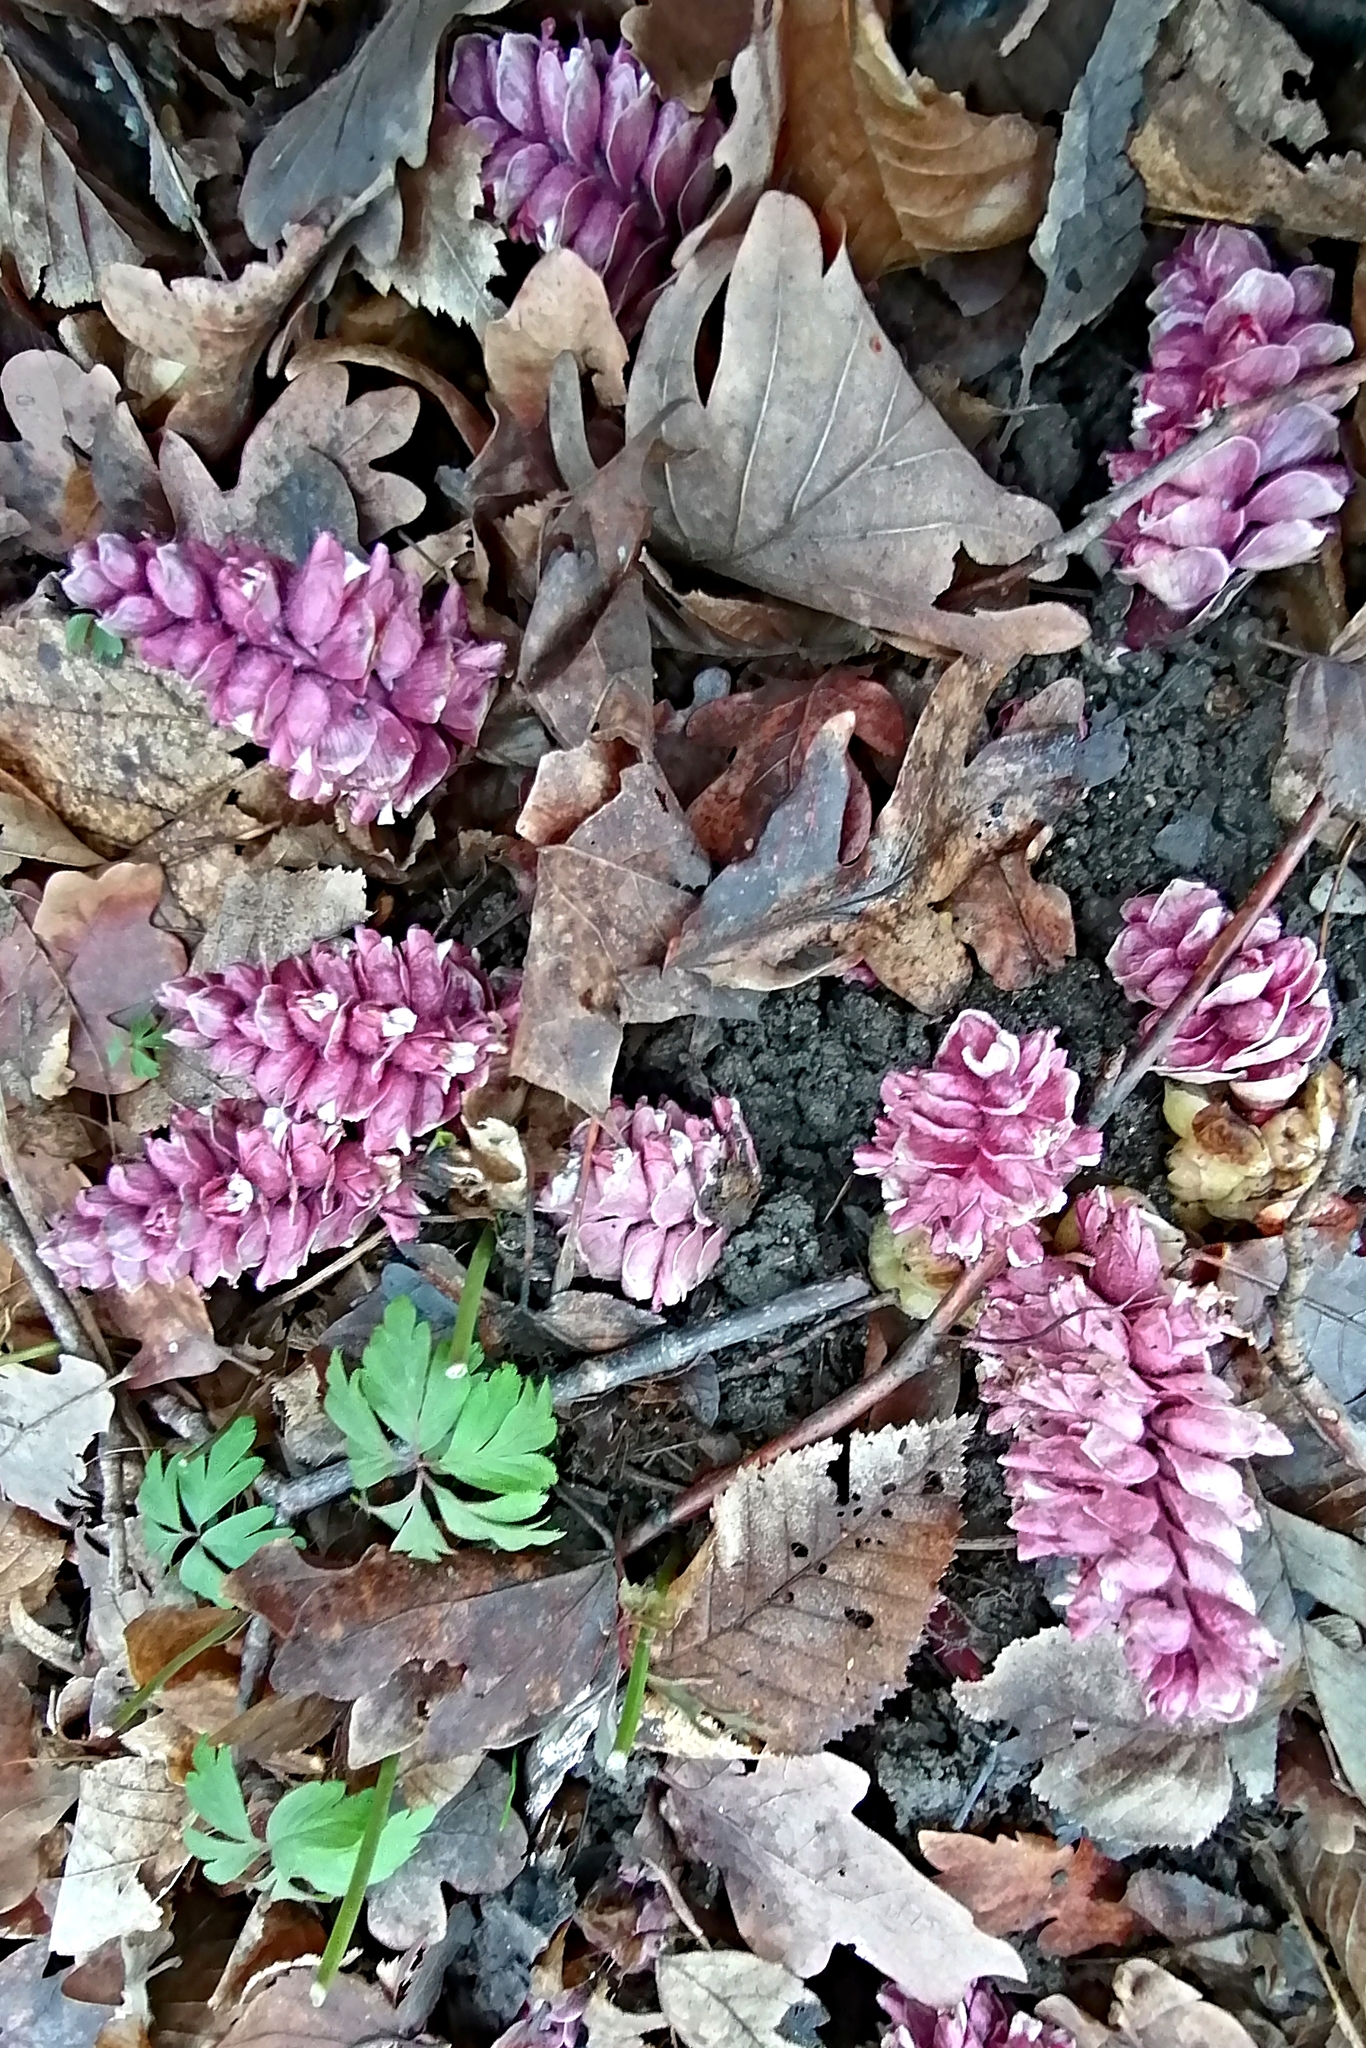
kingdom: Plantae
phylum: Tracheophyta
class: Magnoliopsida
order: Lamiales
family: Orobanchaceae
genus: Lathraea
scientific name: Lathraea squamaria
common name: Toothwort
